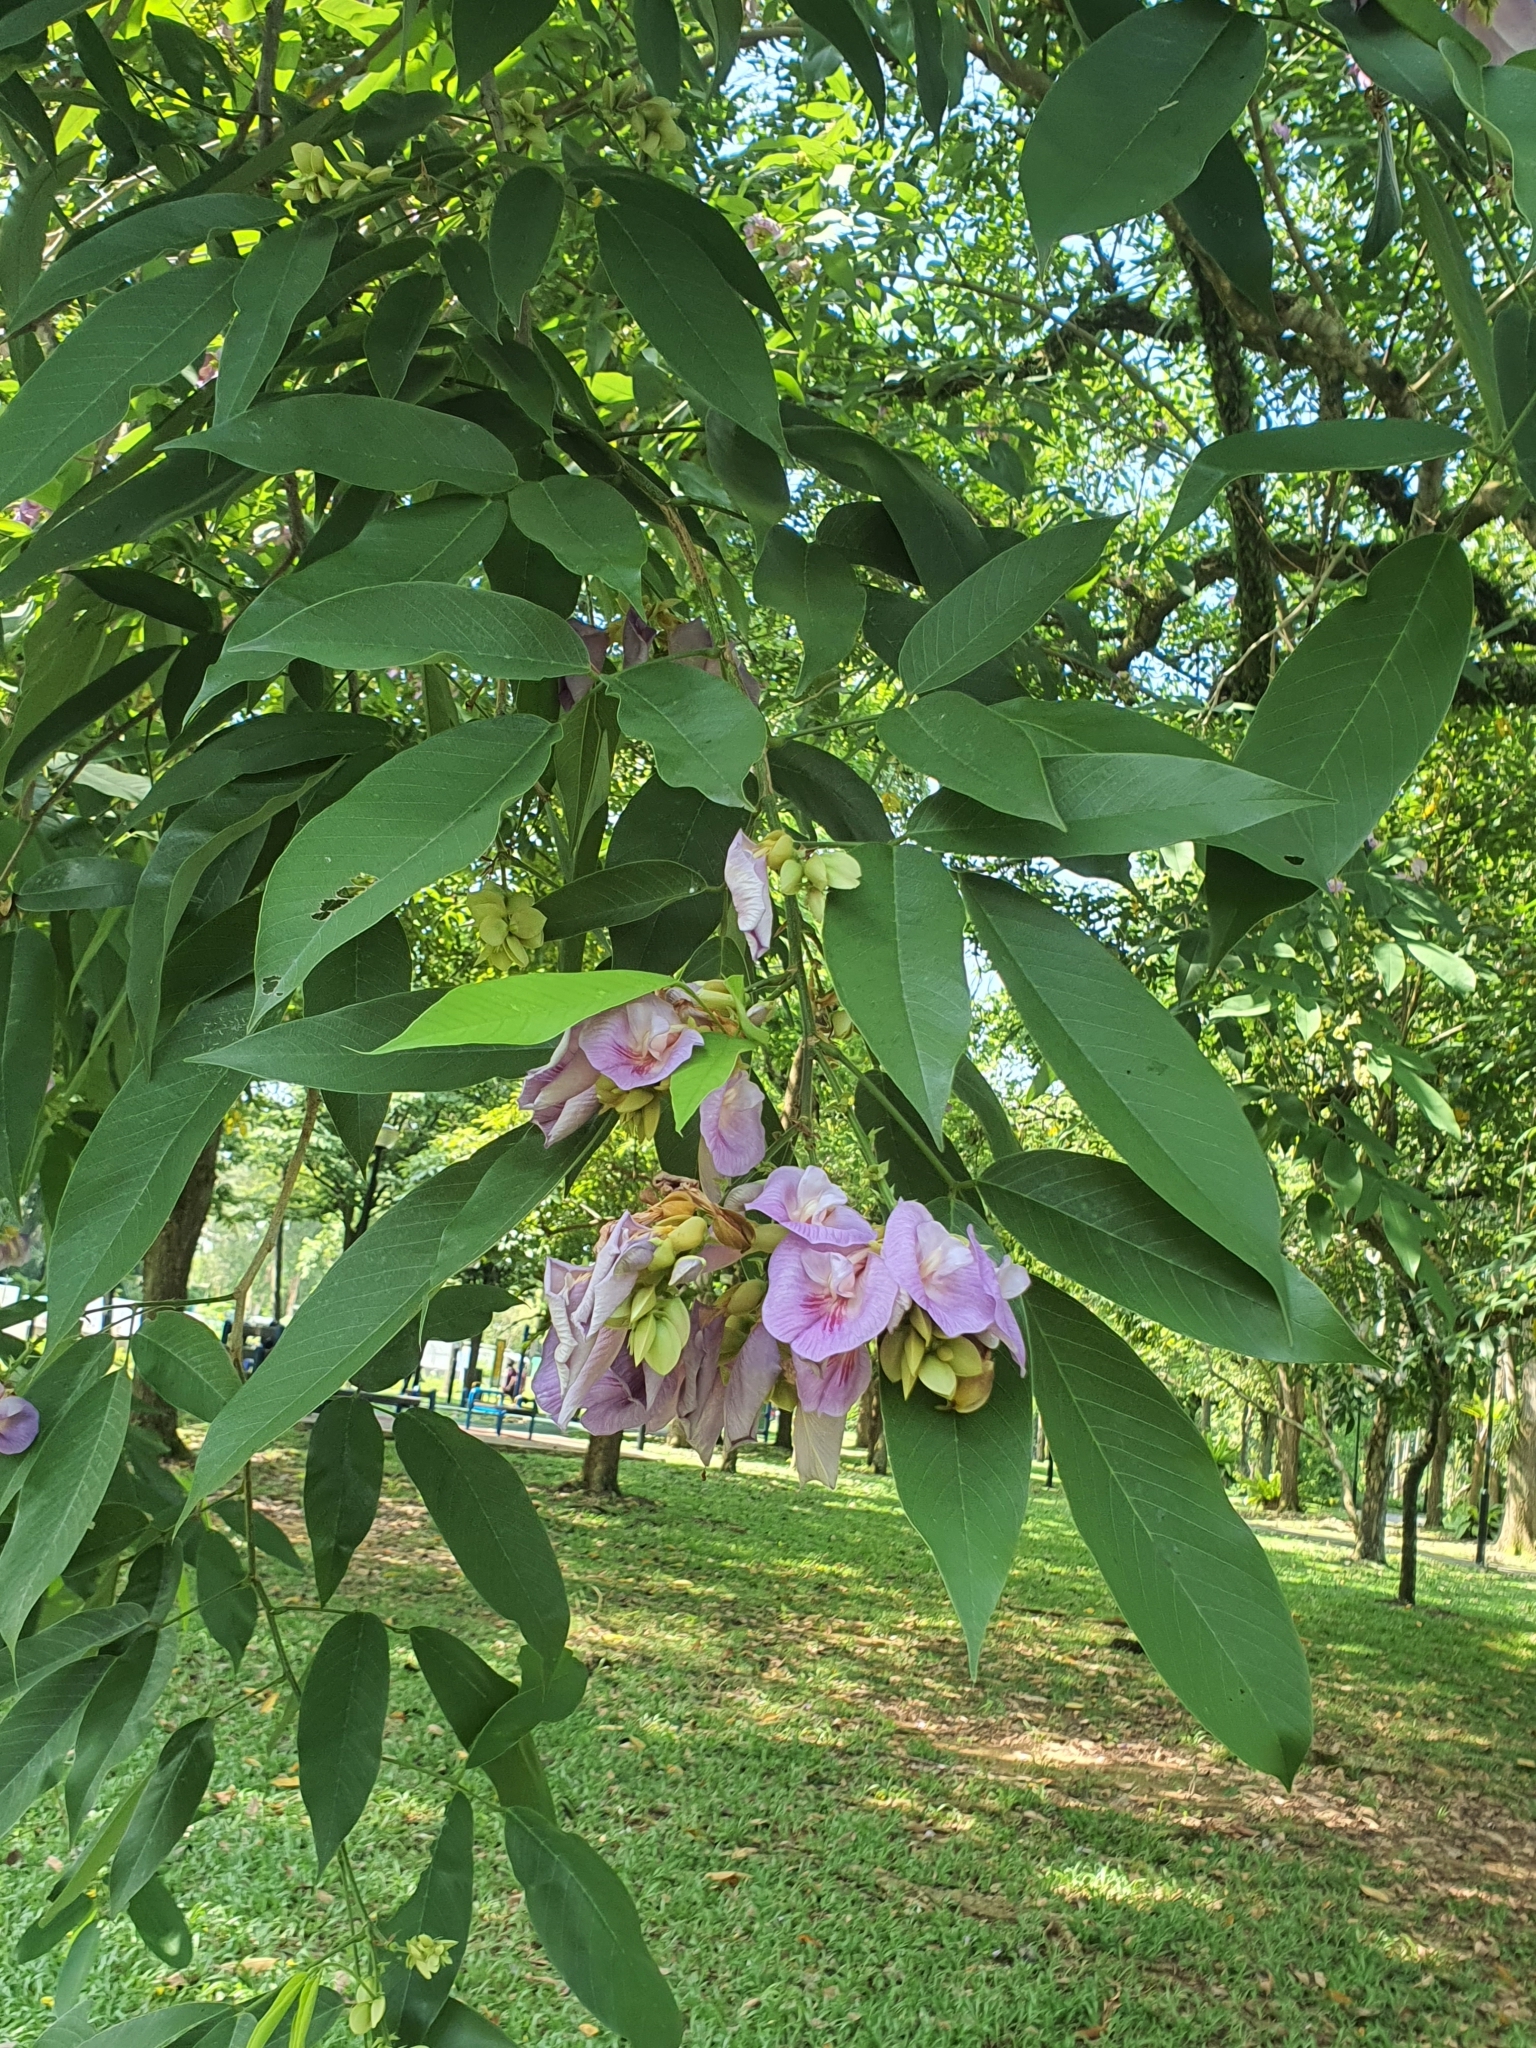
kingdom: Plantae
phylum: Tracheophyta
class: Magnoliopsida
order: Fabales
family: Fabaceae
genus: Clitoria
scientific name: Clitoria fairchildiana
